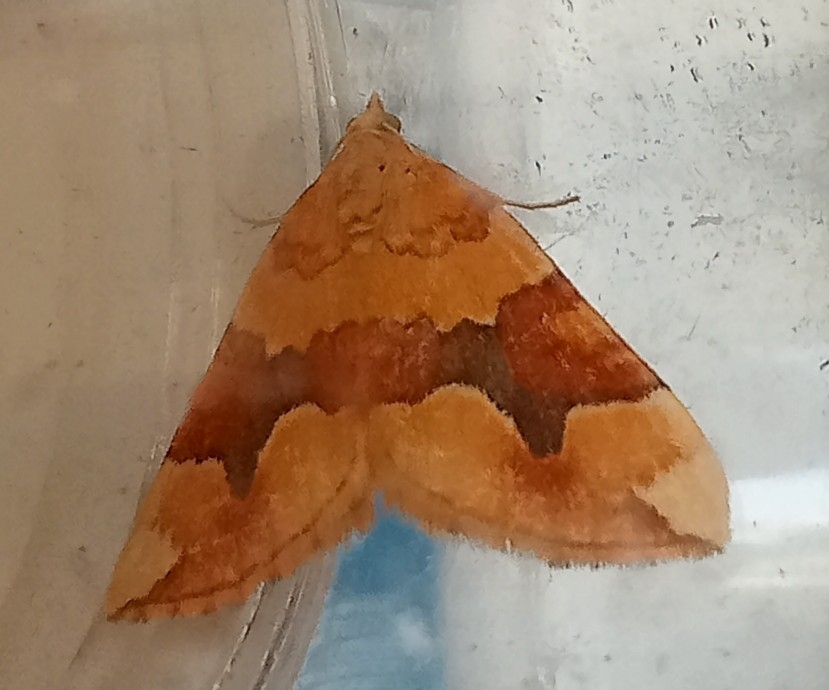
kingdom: Animalia
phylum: Arthropoda
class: Insecta
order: Lepidoptera
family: Geometridae
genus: Cidaria
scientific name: Cidaria fulvata
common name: Barred yellow
